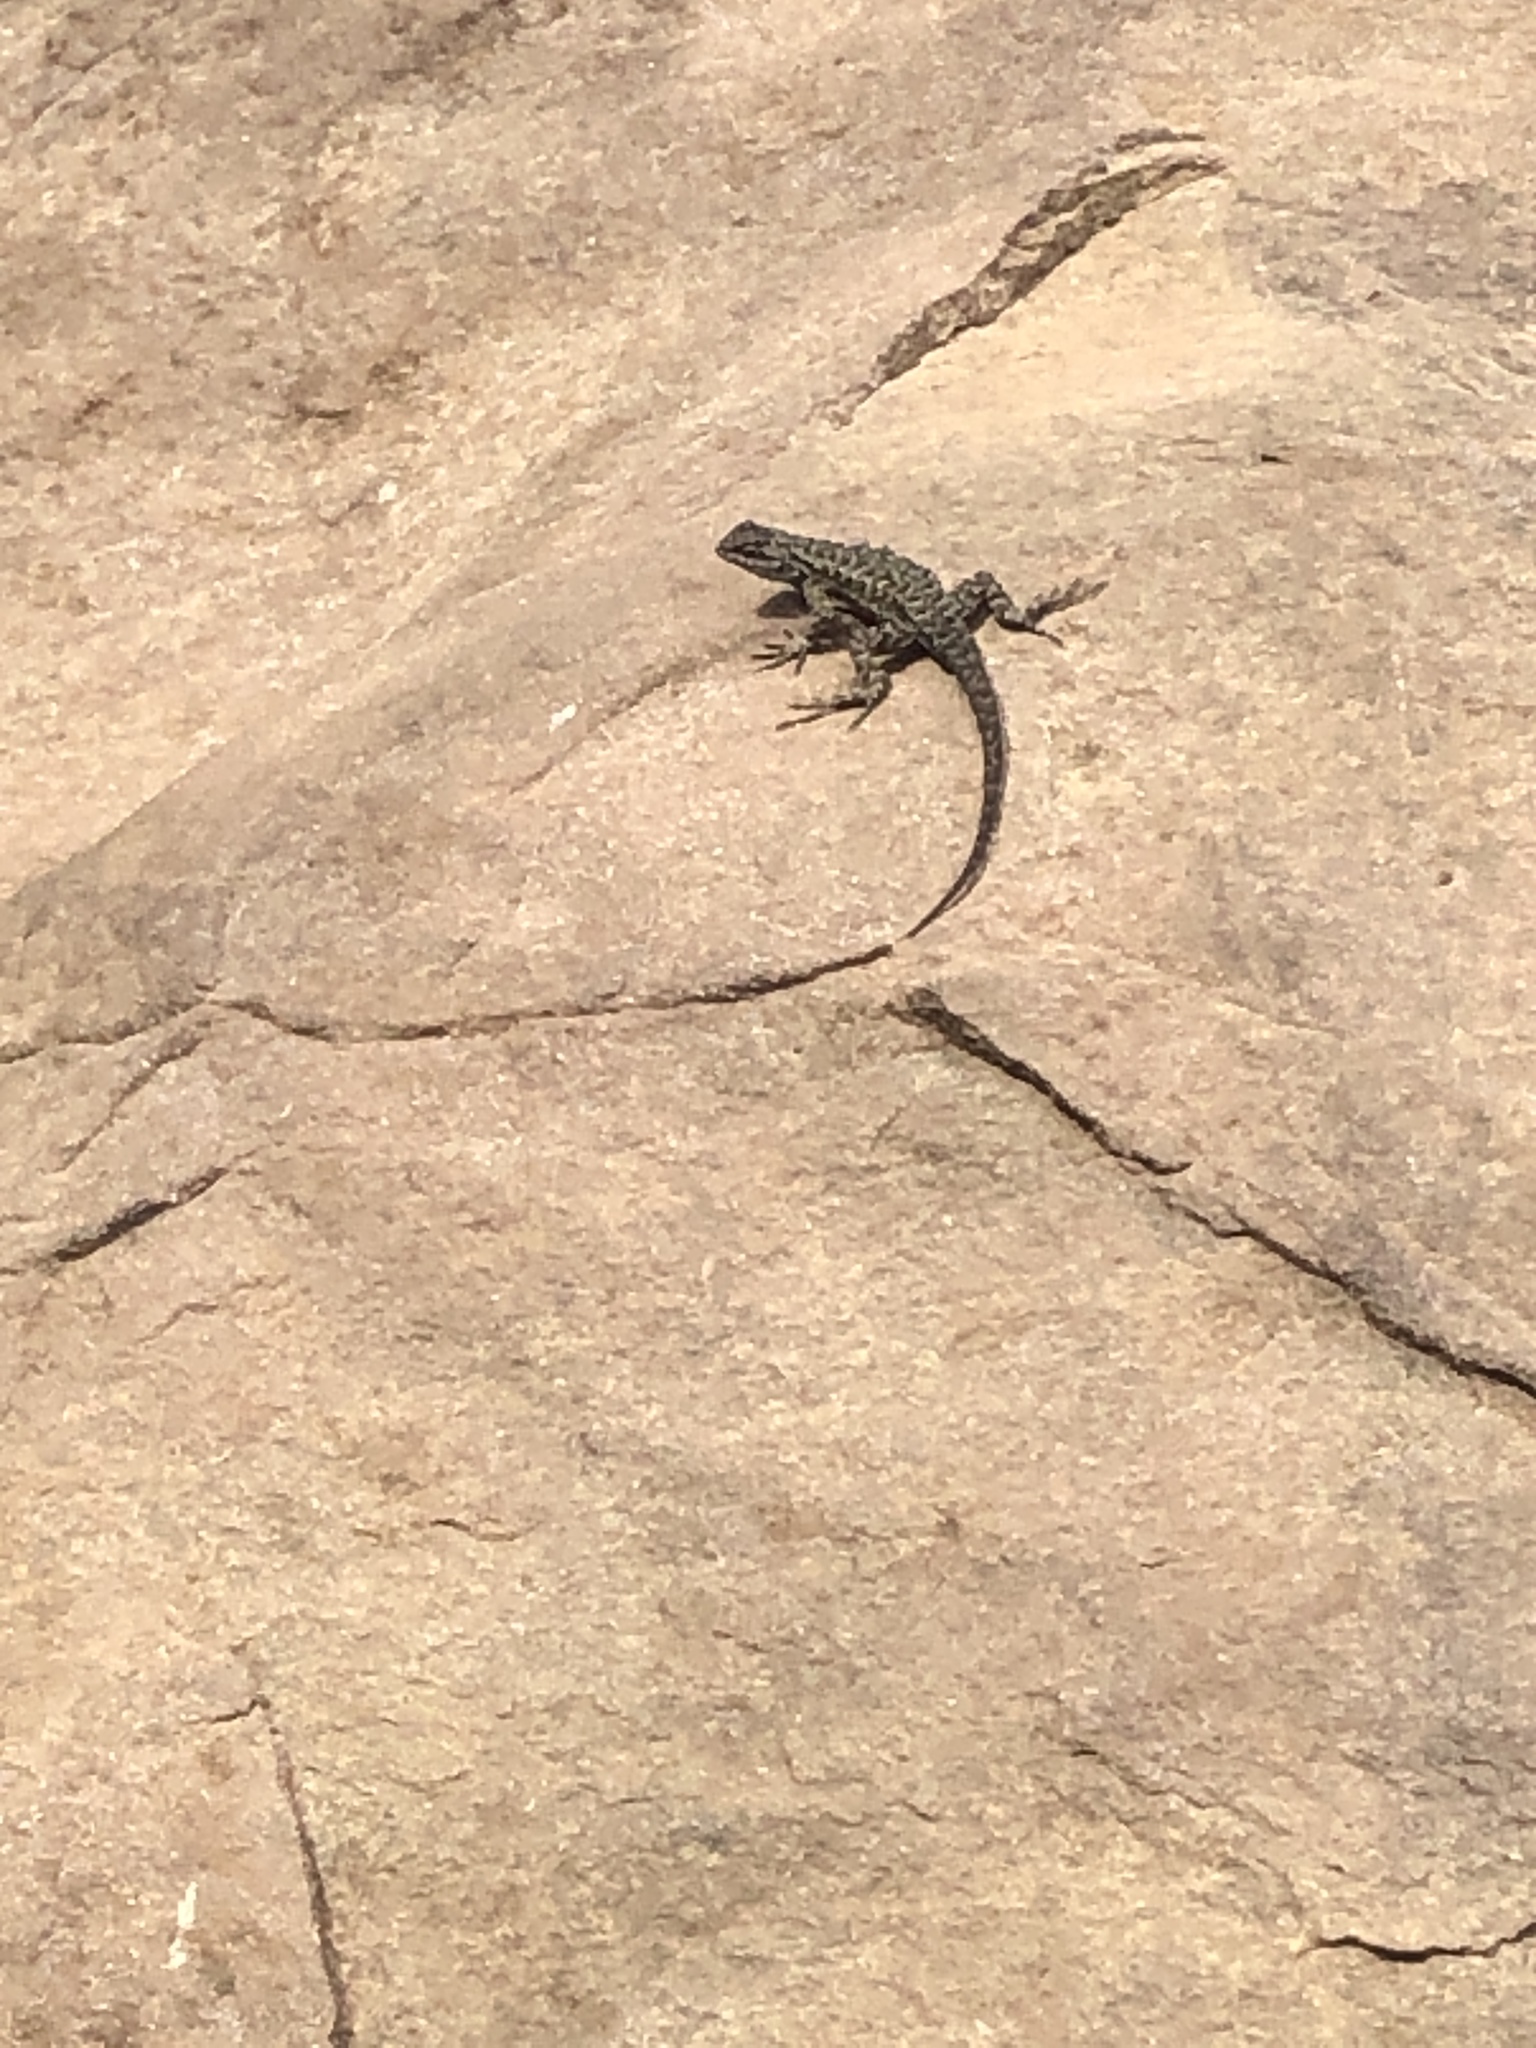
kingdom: Animalia
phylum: Chordata
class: Squamata
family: Phrynosomatidae
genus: Sceloporus
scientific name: Sceloporus occidentalis
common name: Western fence lizard
